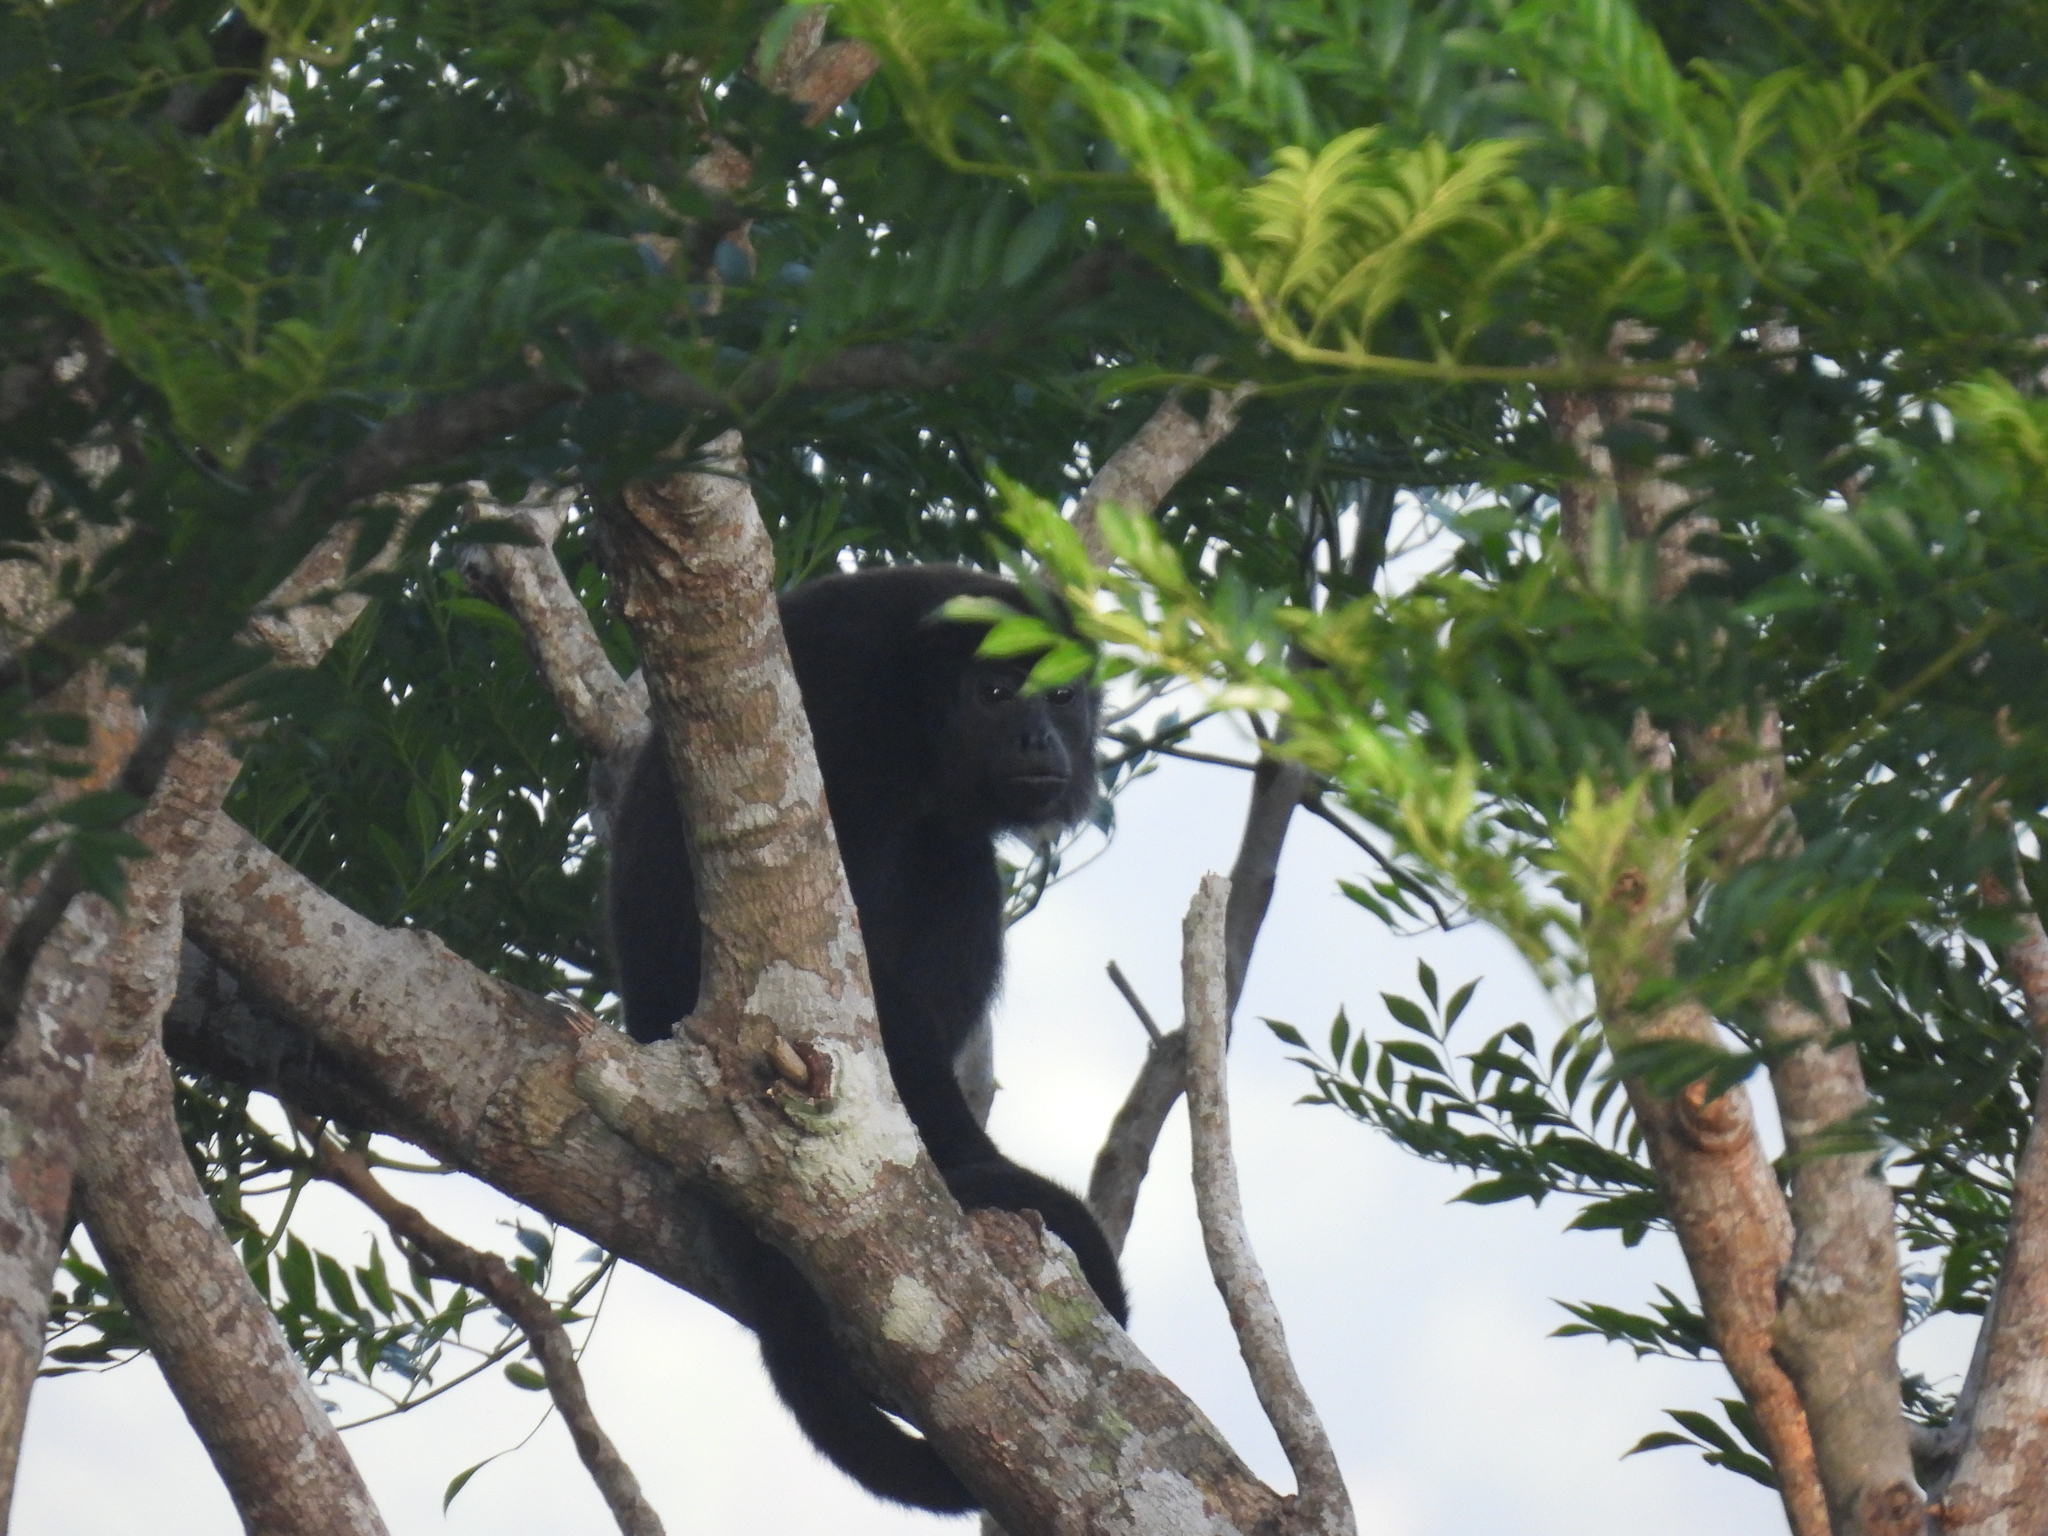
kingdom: Animalia
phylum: Chordata
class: Mammalia
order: Primates
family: Atelidae
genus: Alouatta
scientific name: Alouatta palliata
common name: Mantled howler
